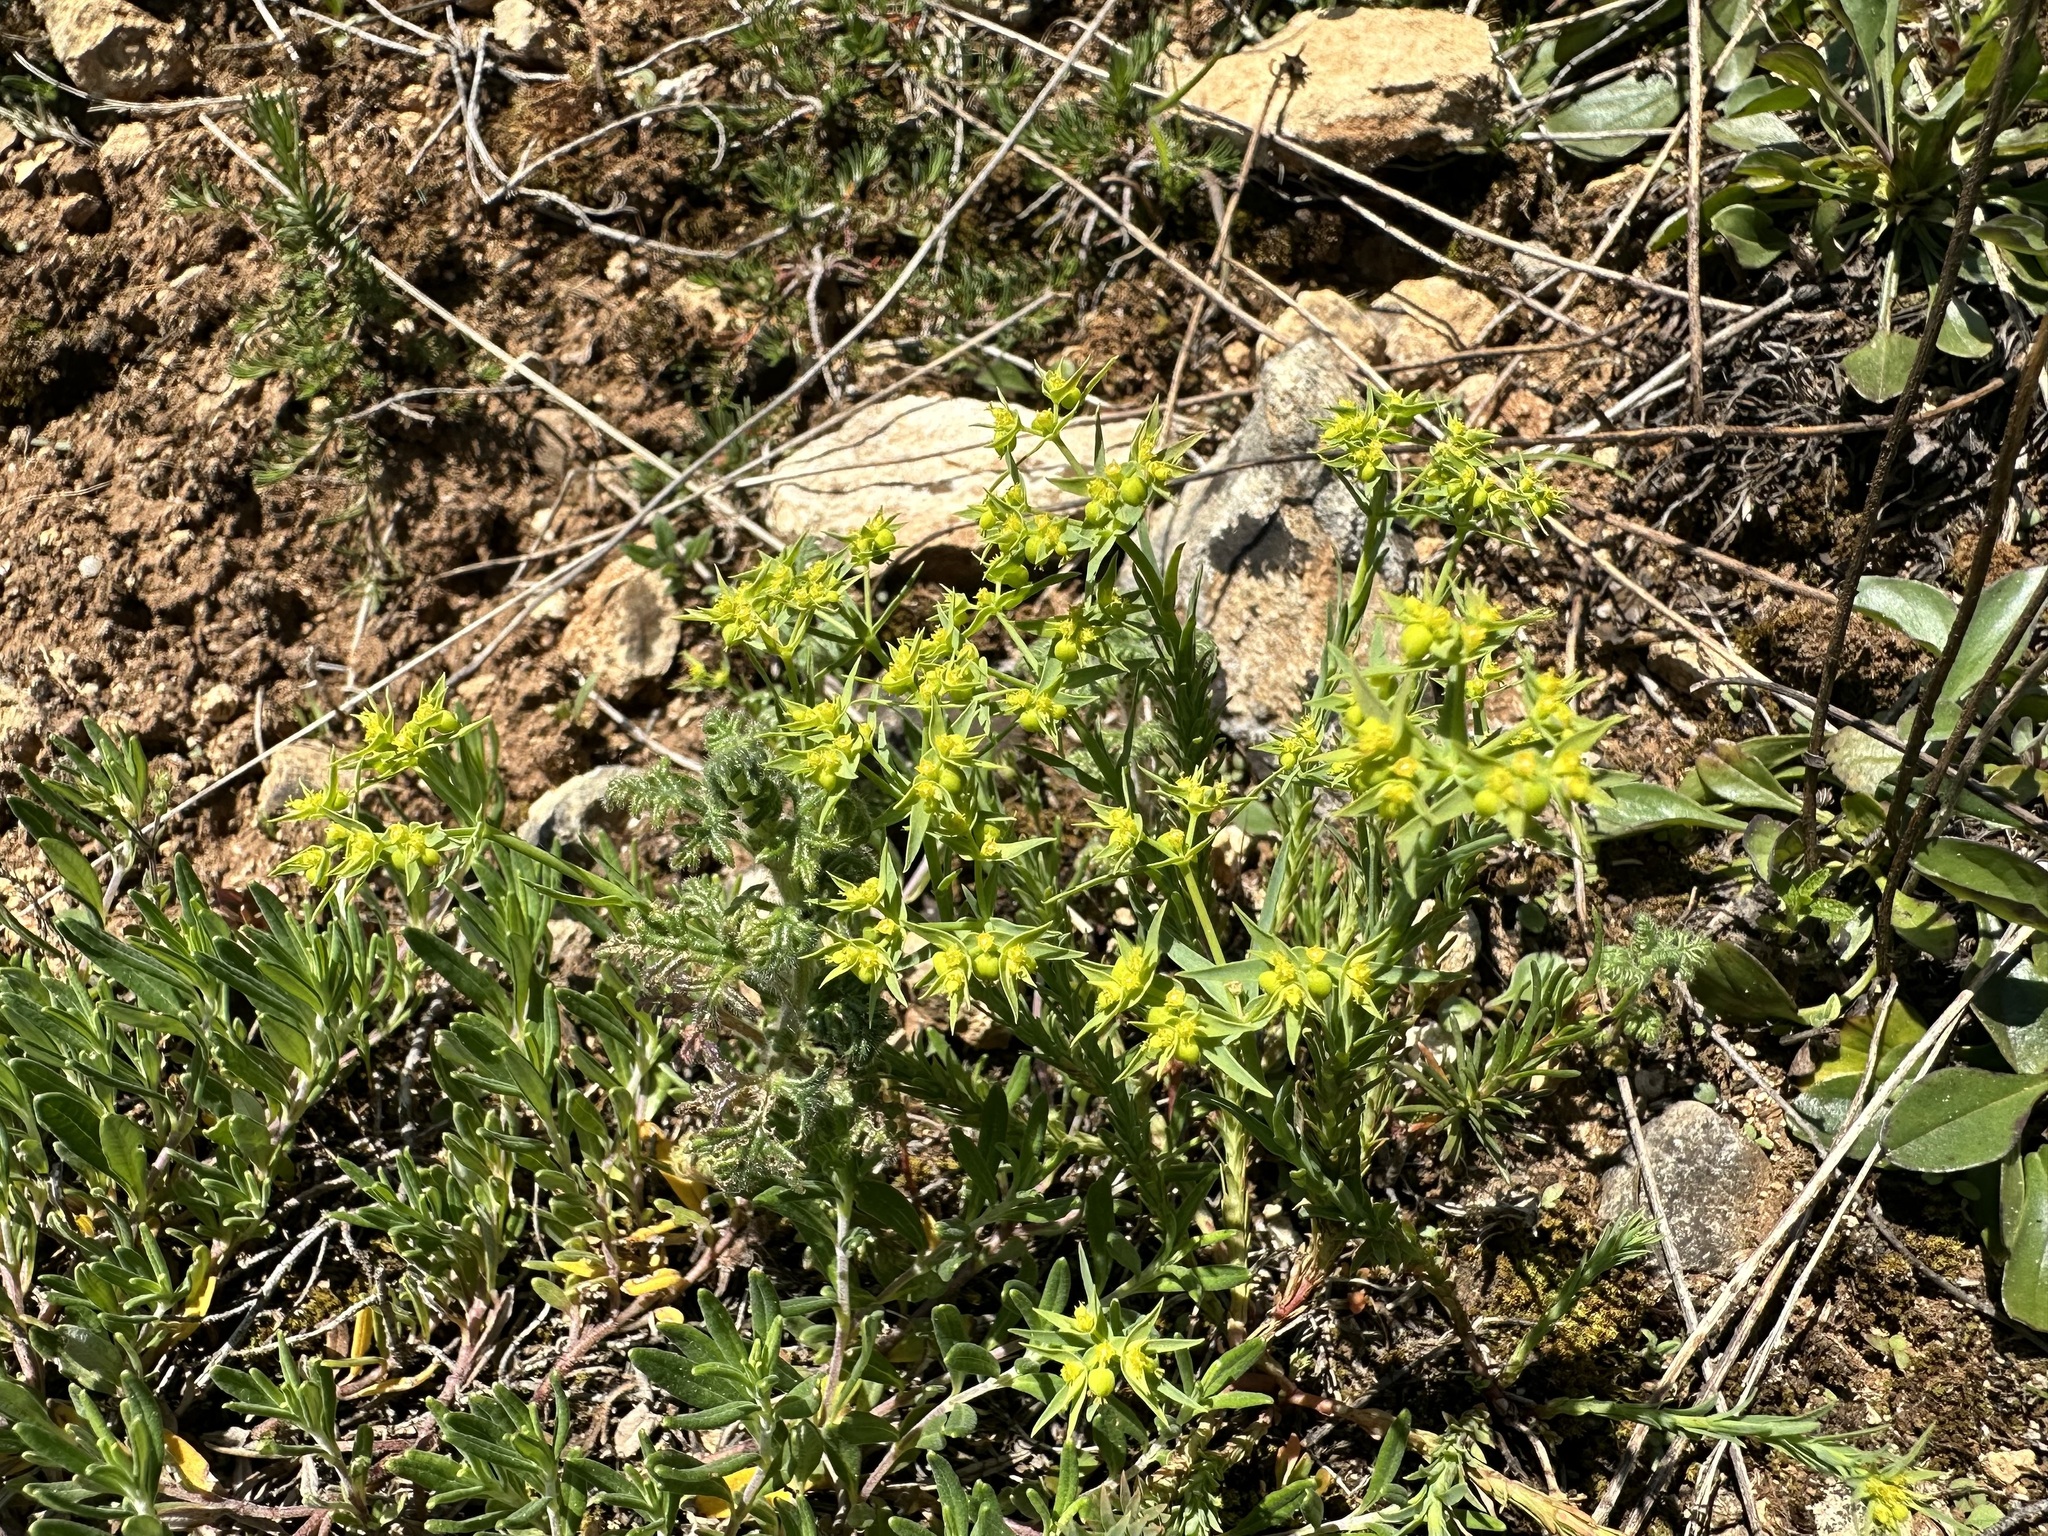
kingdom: Plantae
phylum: Tracheophyta
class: Magnoliopsida
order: Malpighiales
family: Euphorbiaceae
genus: Euphorbia
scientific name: Euphorbia exigua
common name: Dwarf spurge
